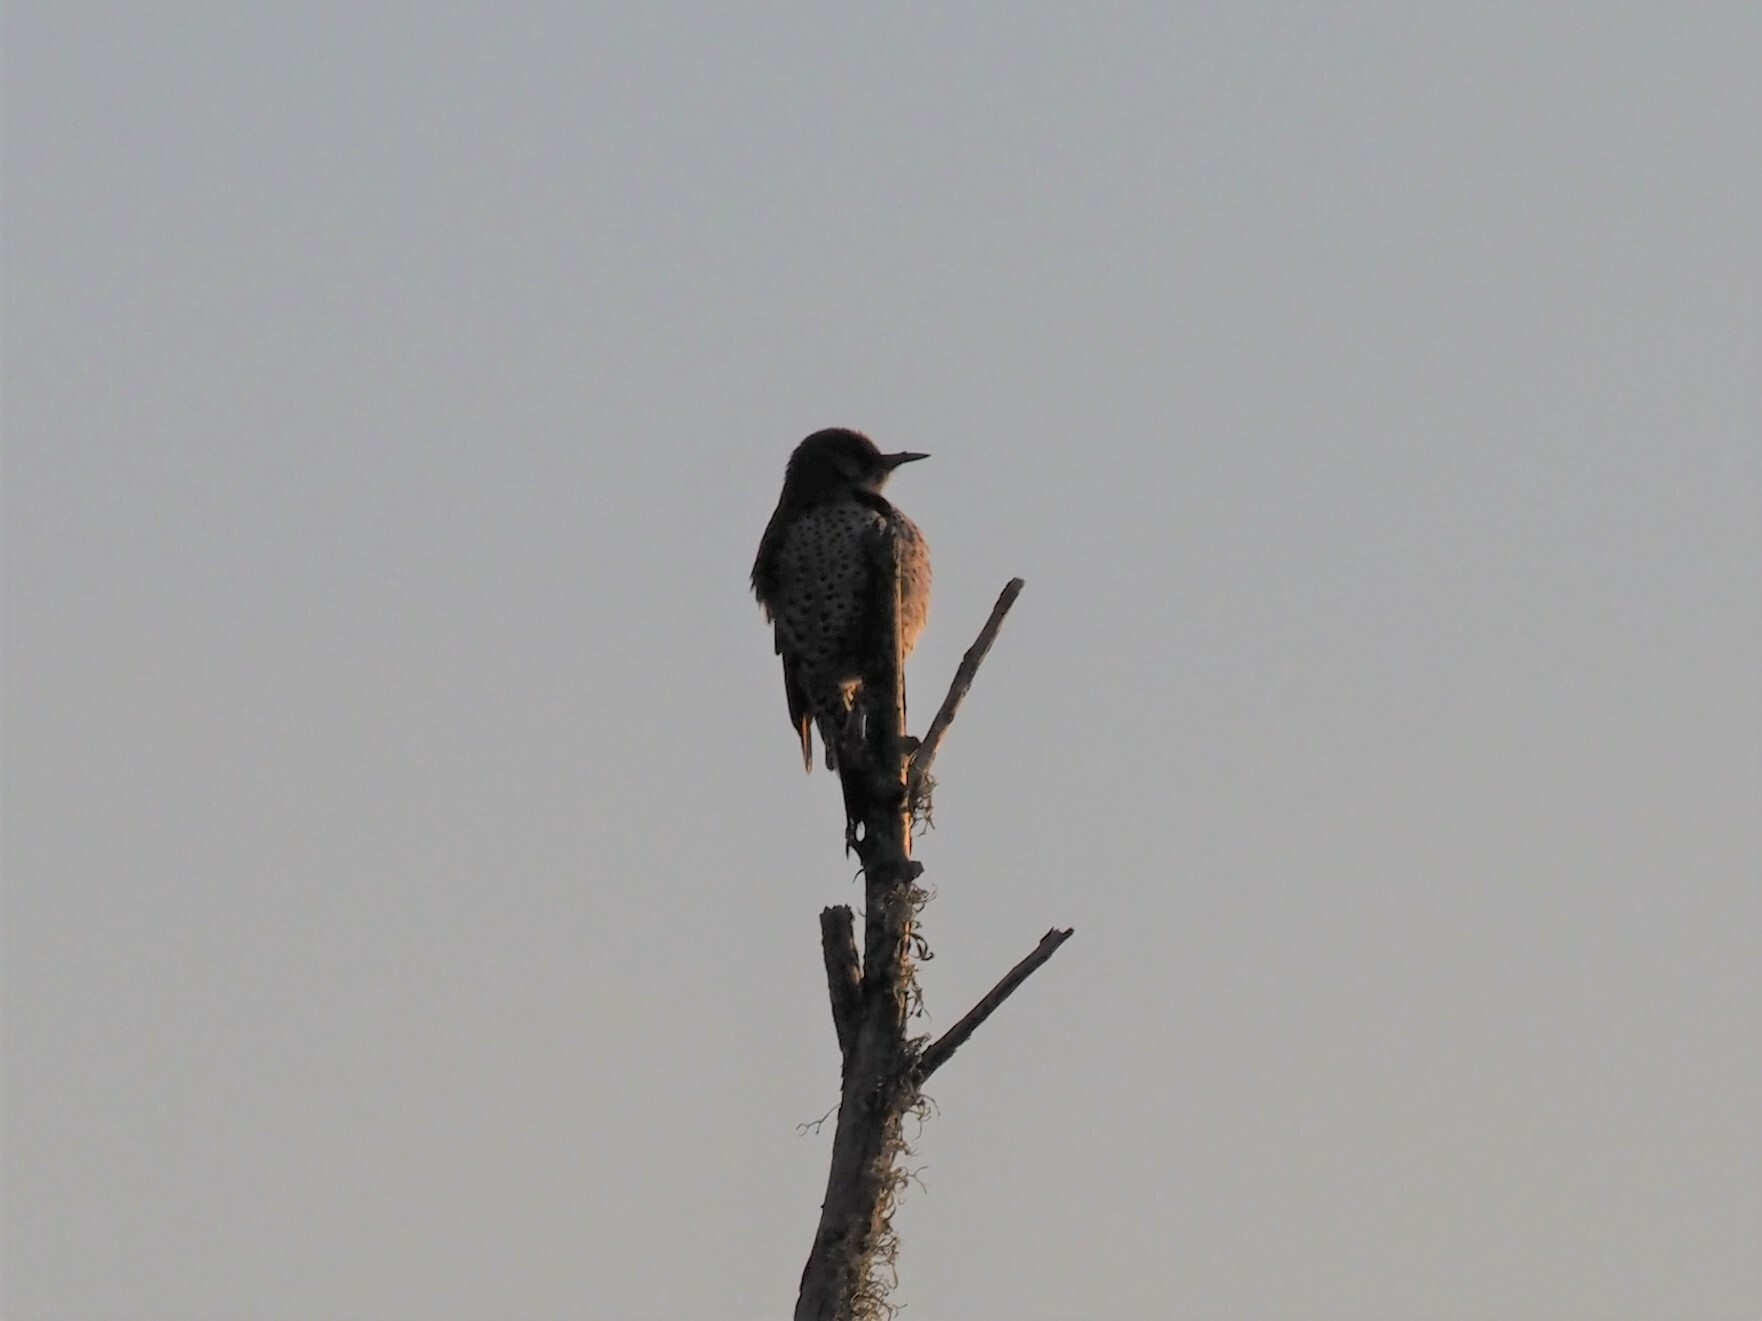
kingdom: Animalia
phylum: Chordata
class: Aves
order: Piciformes
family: Picidae
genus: Colaptes
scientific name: Colaptes auratus
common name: Northern flicker
